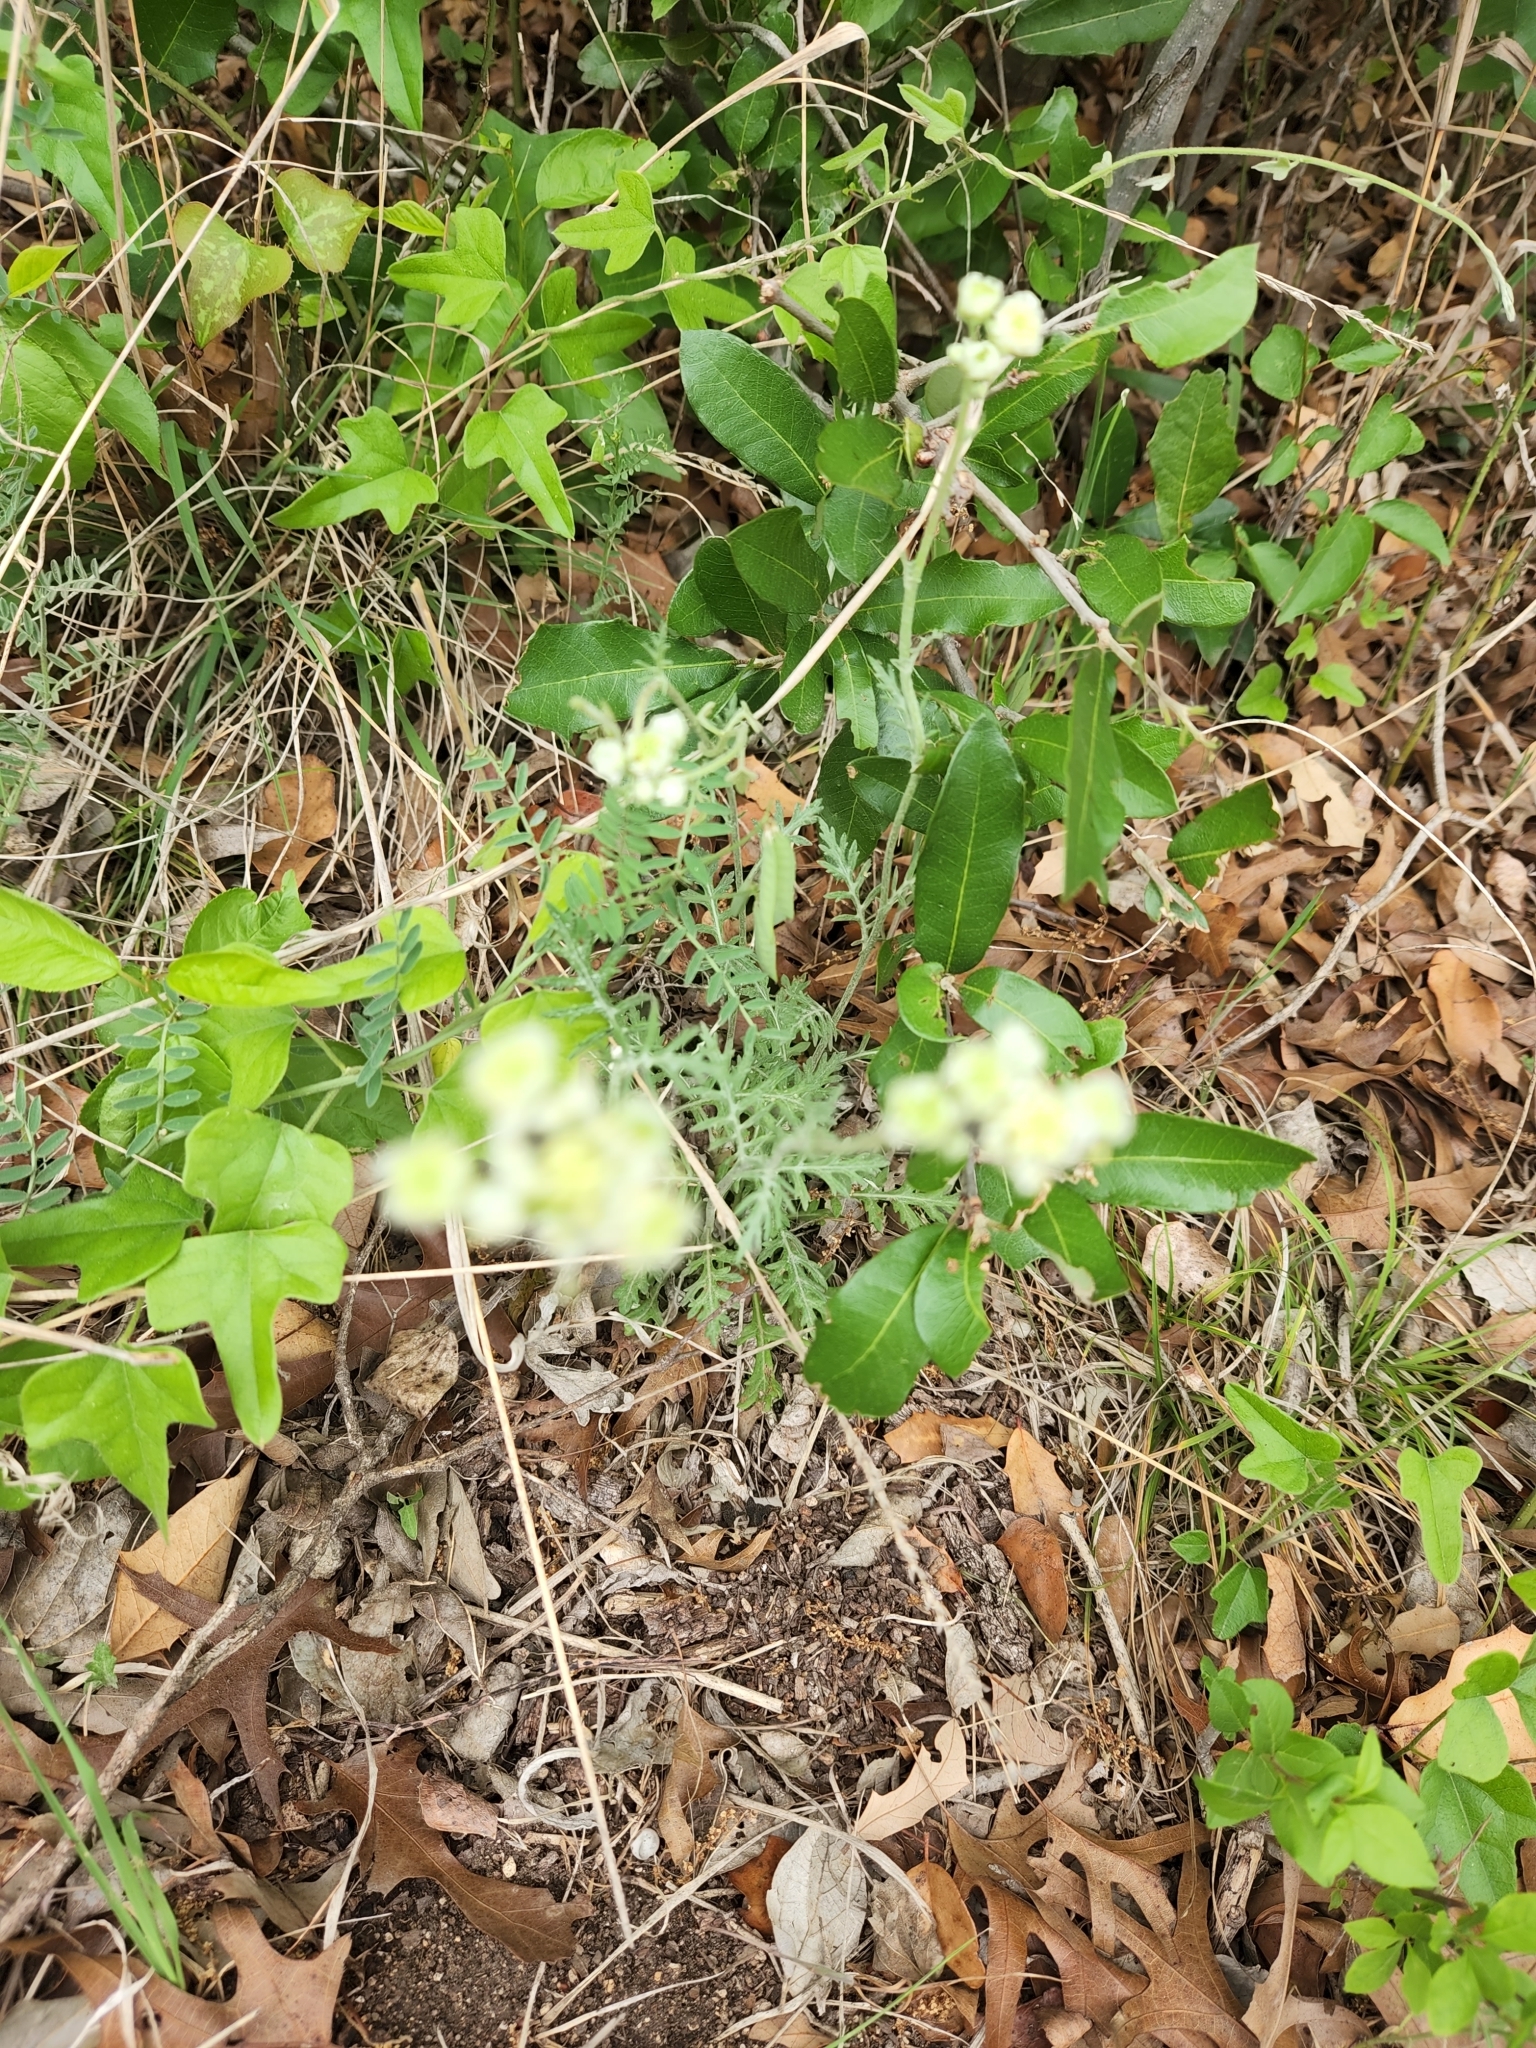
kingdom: Plantae
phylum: Tracheophyta
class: Magnoliopsida
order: Asterales
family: Asteraceae
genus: Hymenopappus
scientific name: Hymenopappus scabiosaeus
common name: Carolina woollywhite
